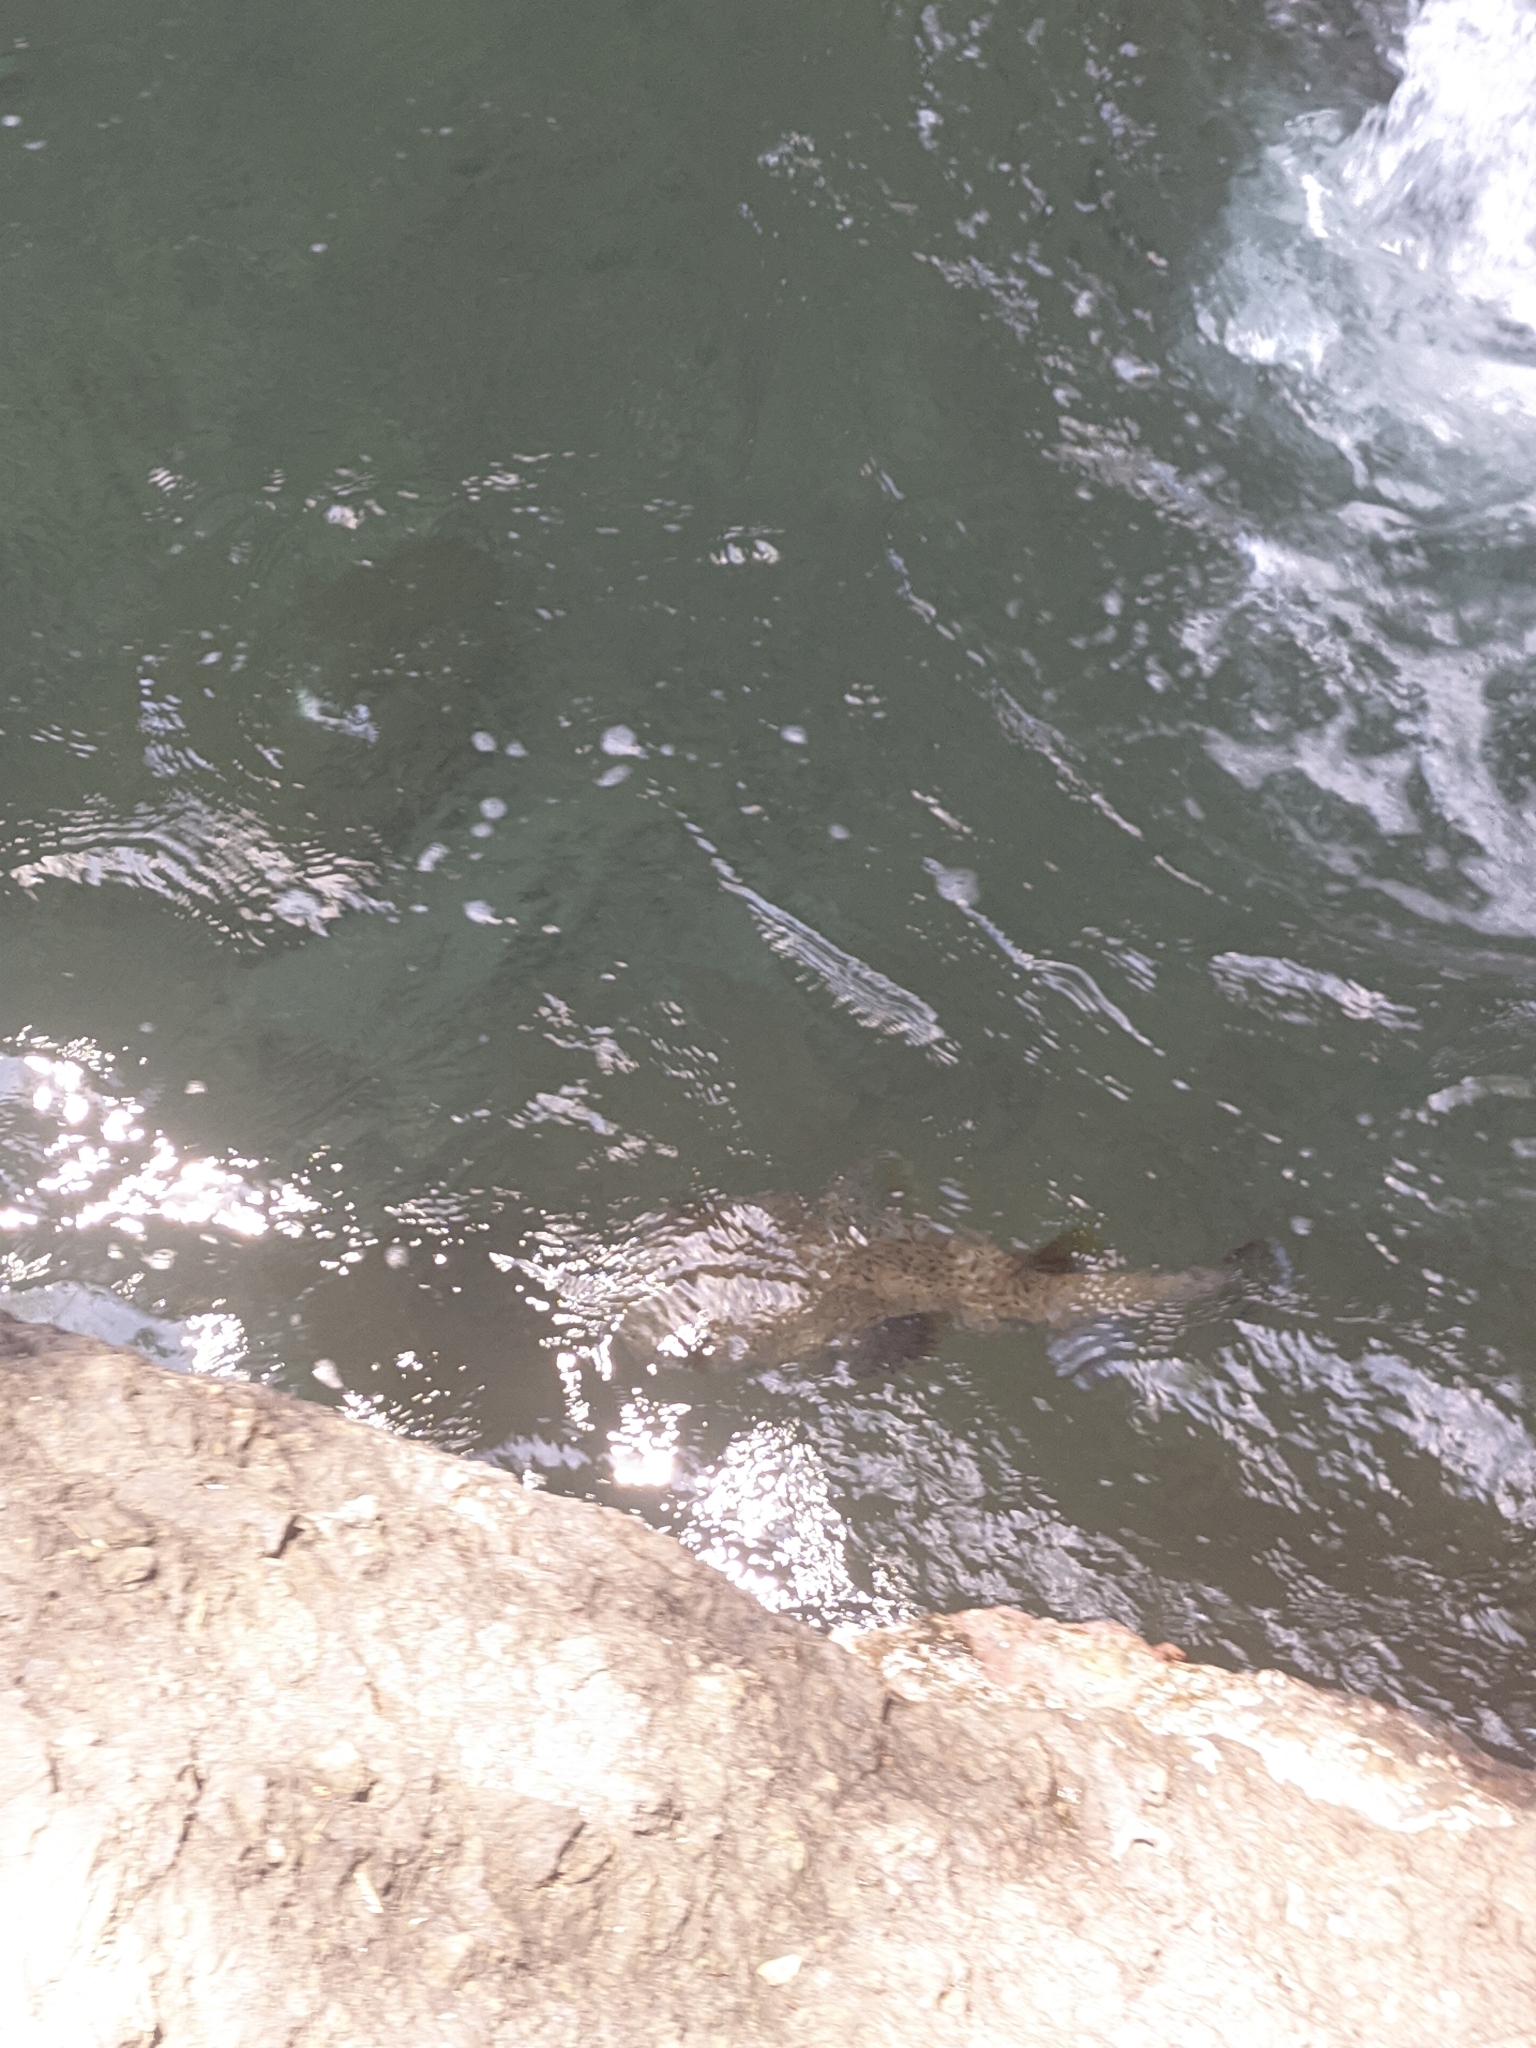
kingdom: Animalia
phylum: Chordata
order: Tetraodontiformes
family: Diodontidae
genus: Diodon
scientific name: Diodon hystrix
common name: Giant porcupinefish
